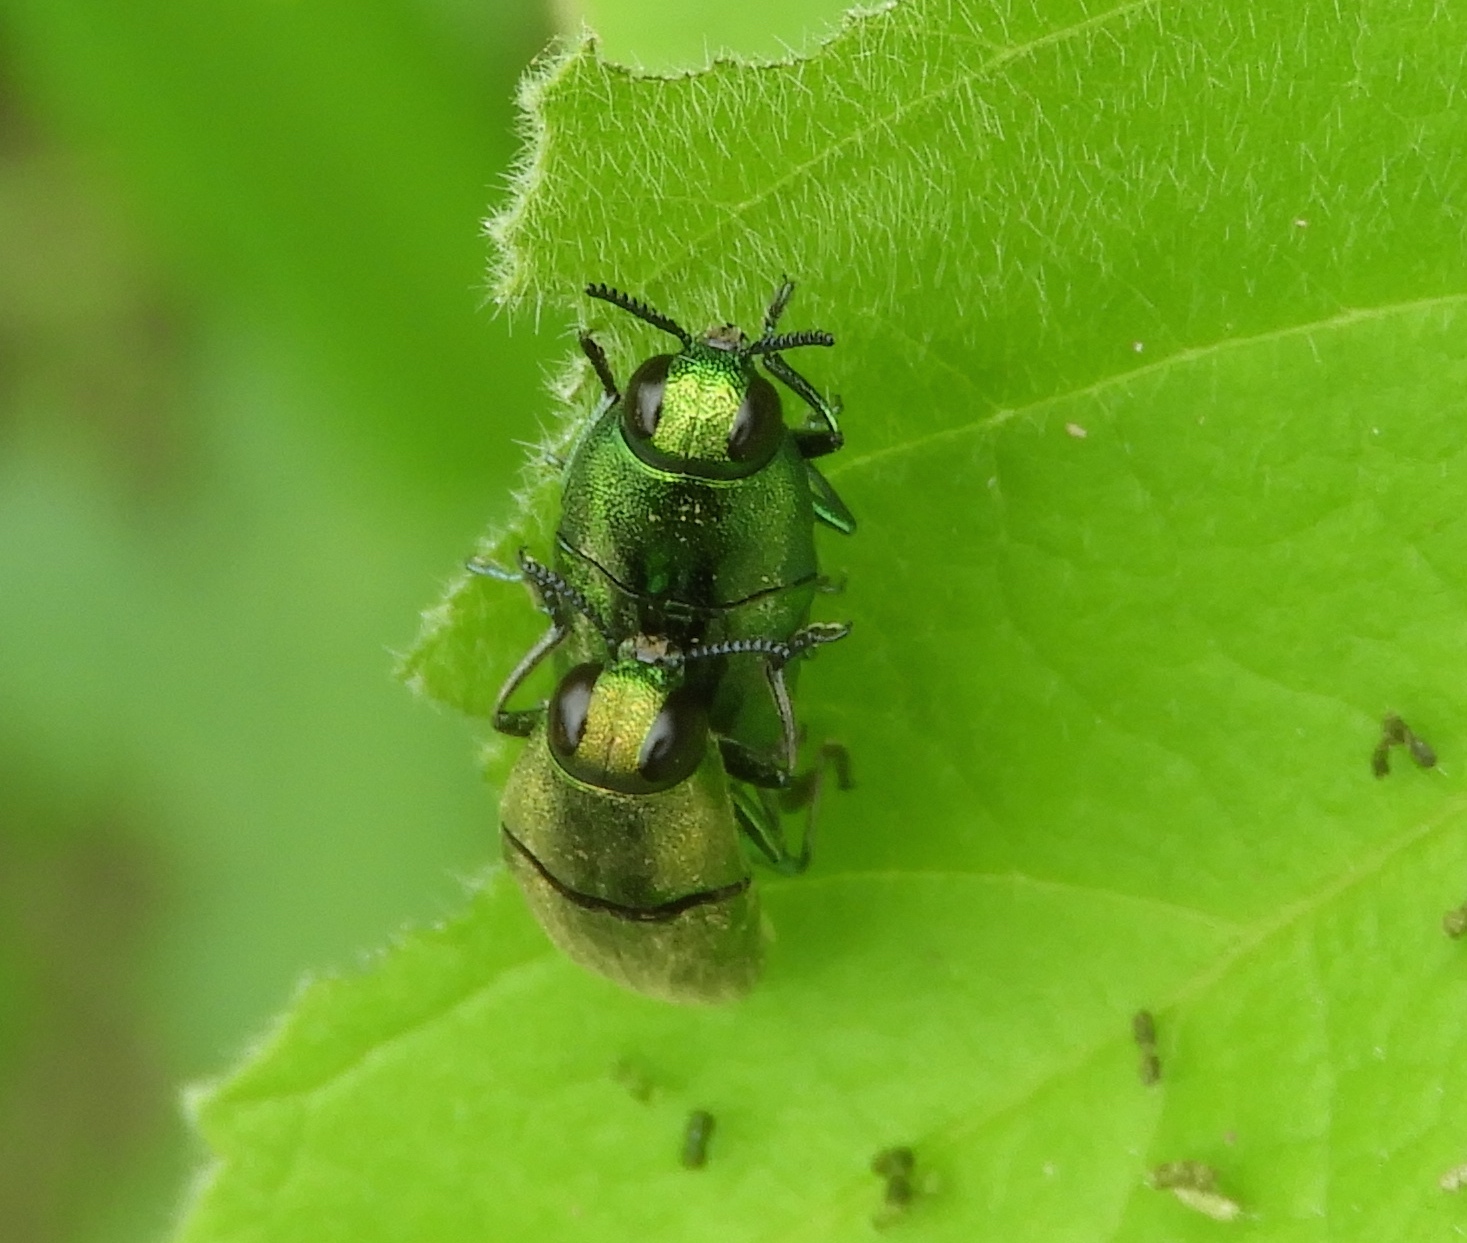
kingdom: Animalia
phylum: Arthropoda
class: Insecta
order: Coleoptera
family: Buprestidae
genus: Agaeocera
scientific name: Agaeocera scintillans
